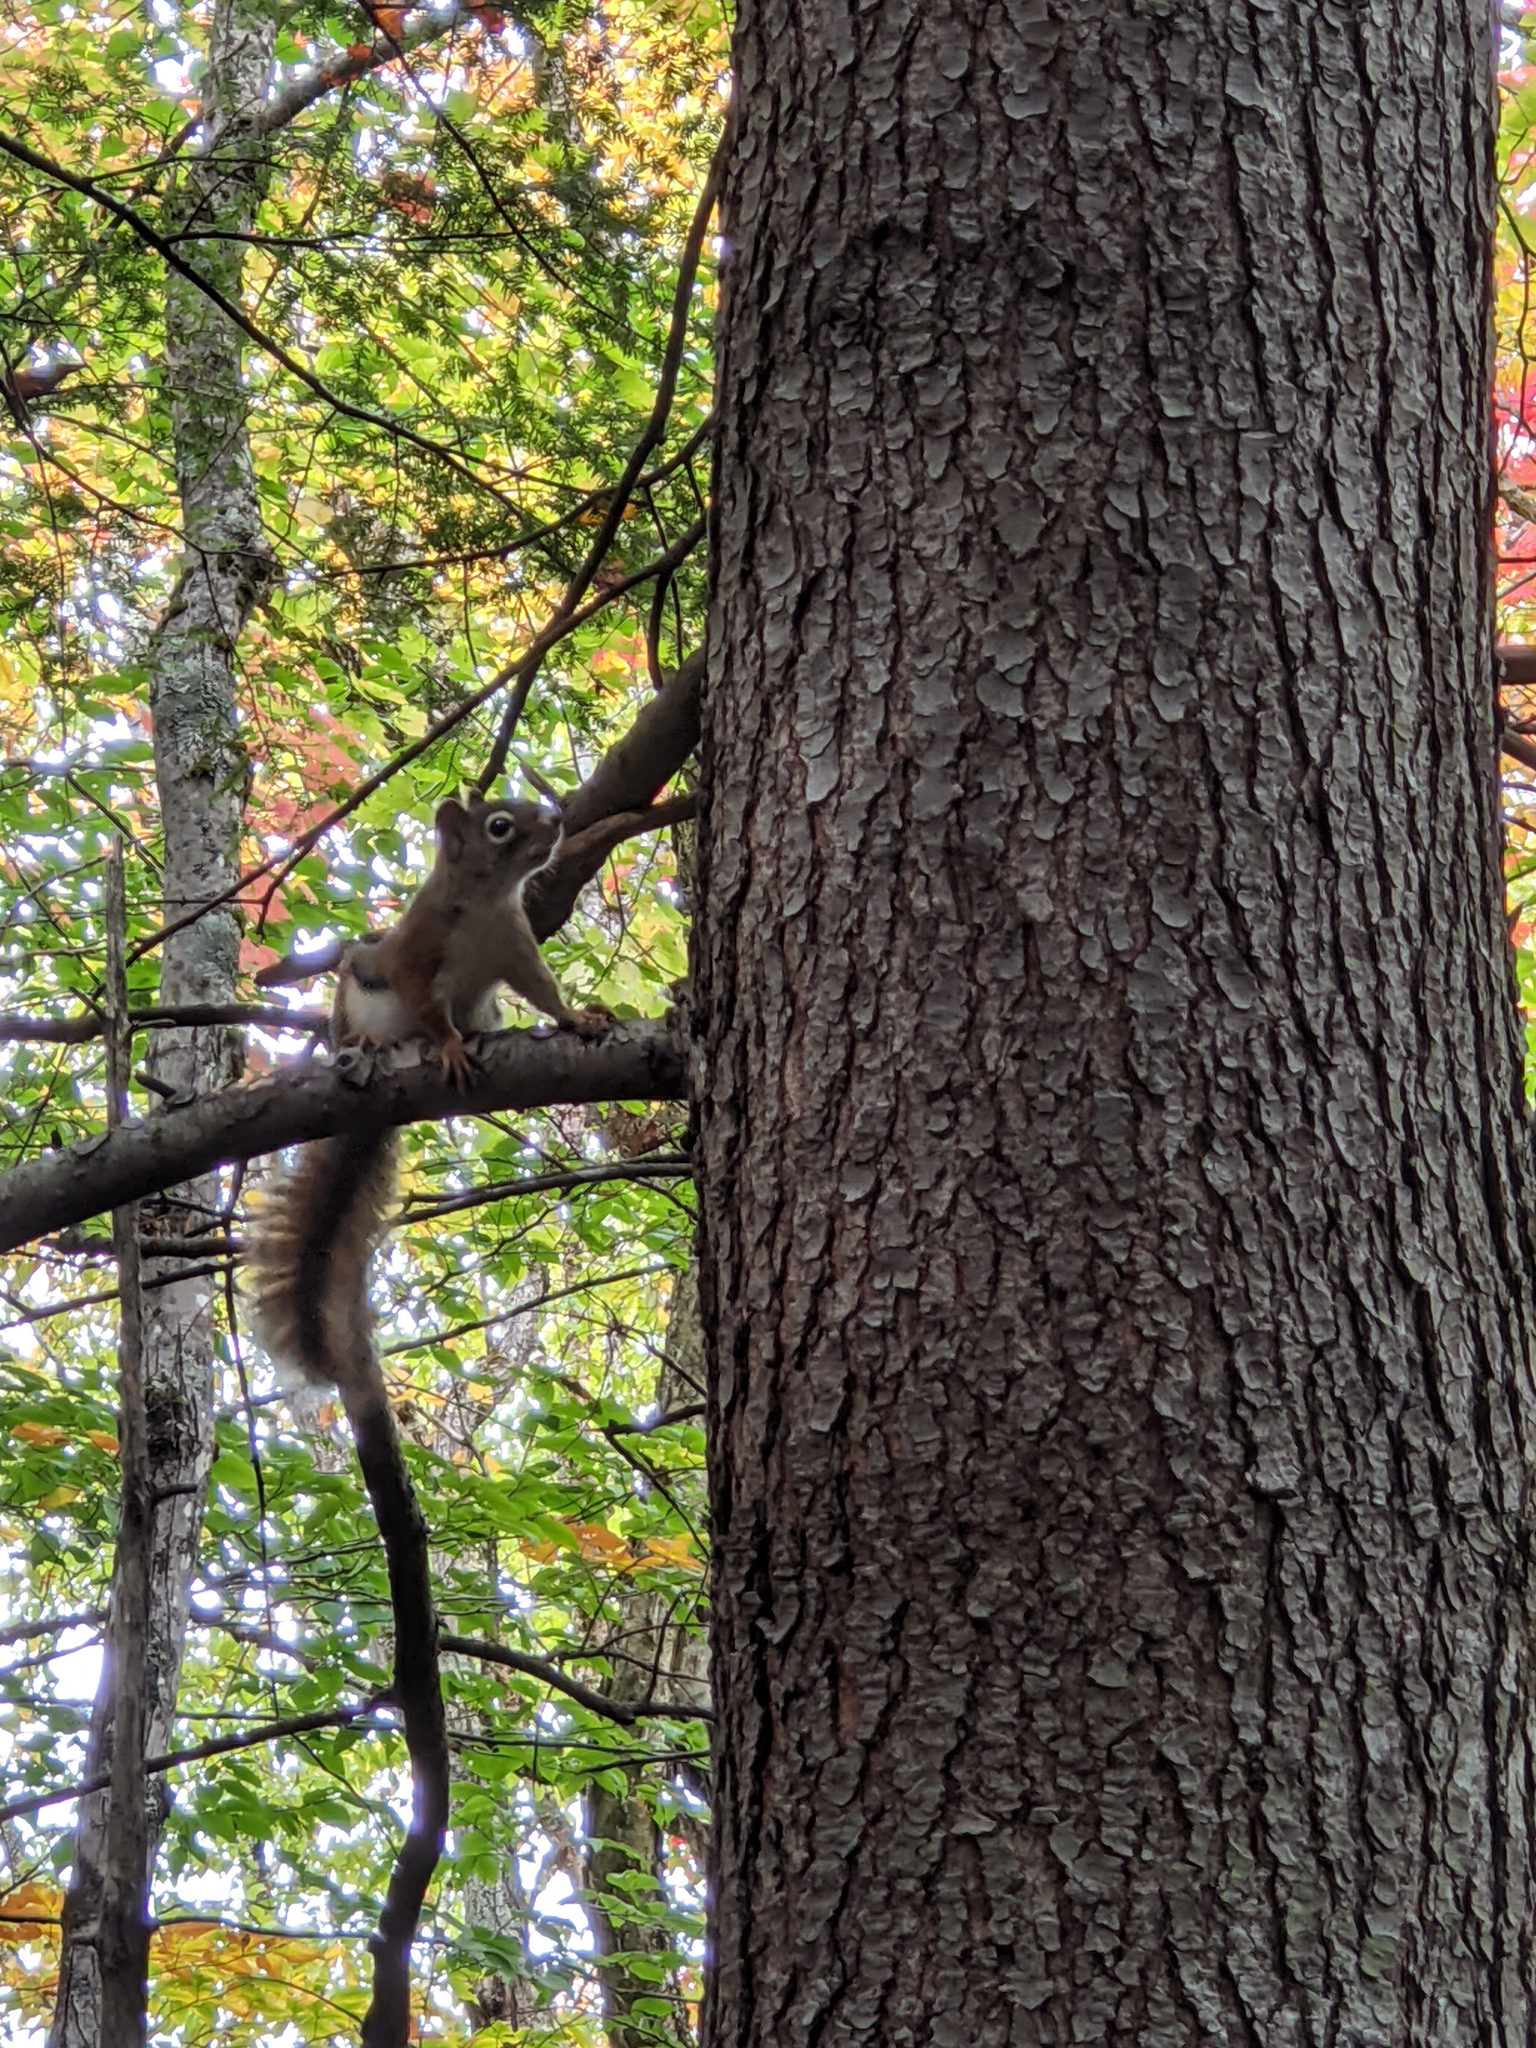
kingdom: Animalia
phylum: Chordata
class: Mammalia
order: Rodentia
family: Sciuridae
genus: Tamiasciurus
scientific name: Tamiasciurus hudsonicus
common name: Red squirrel
